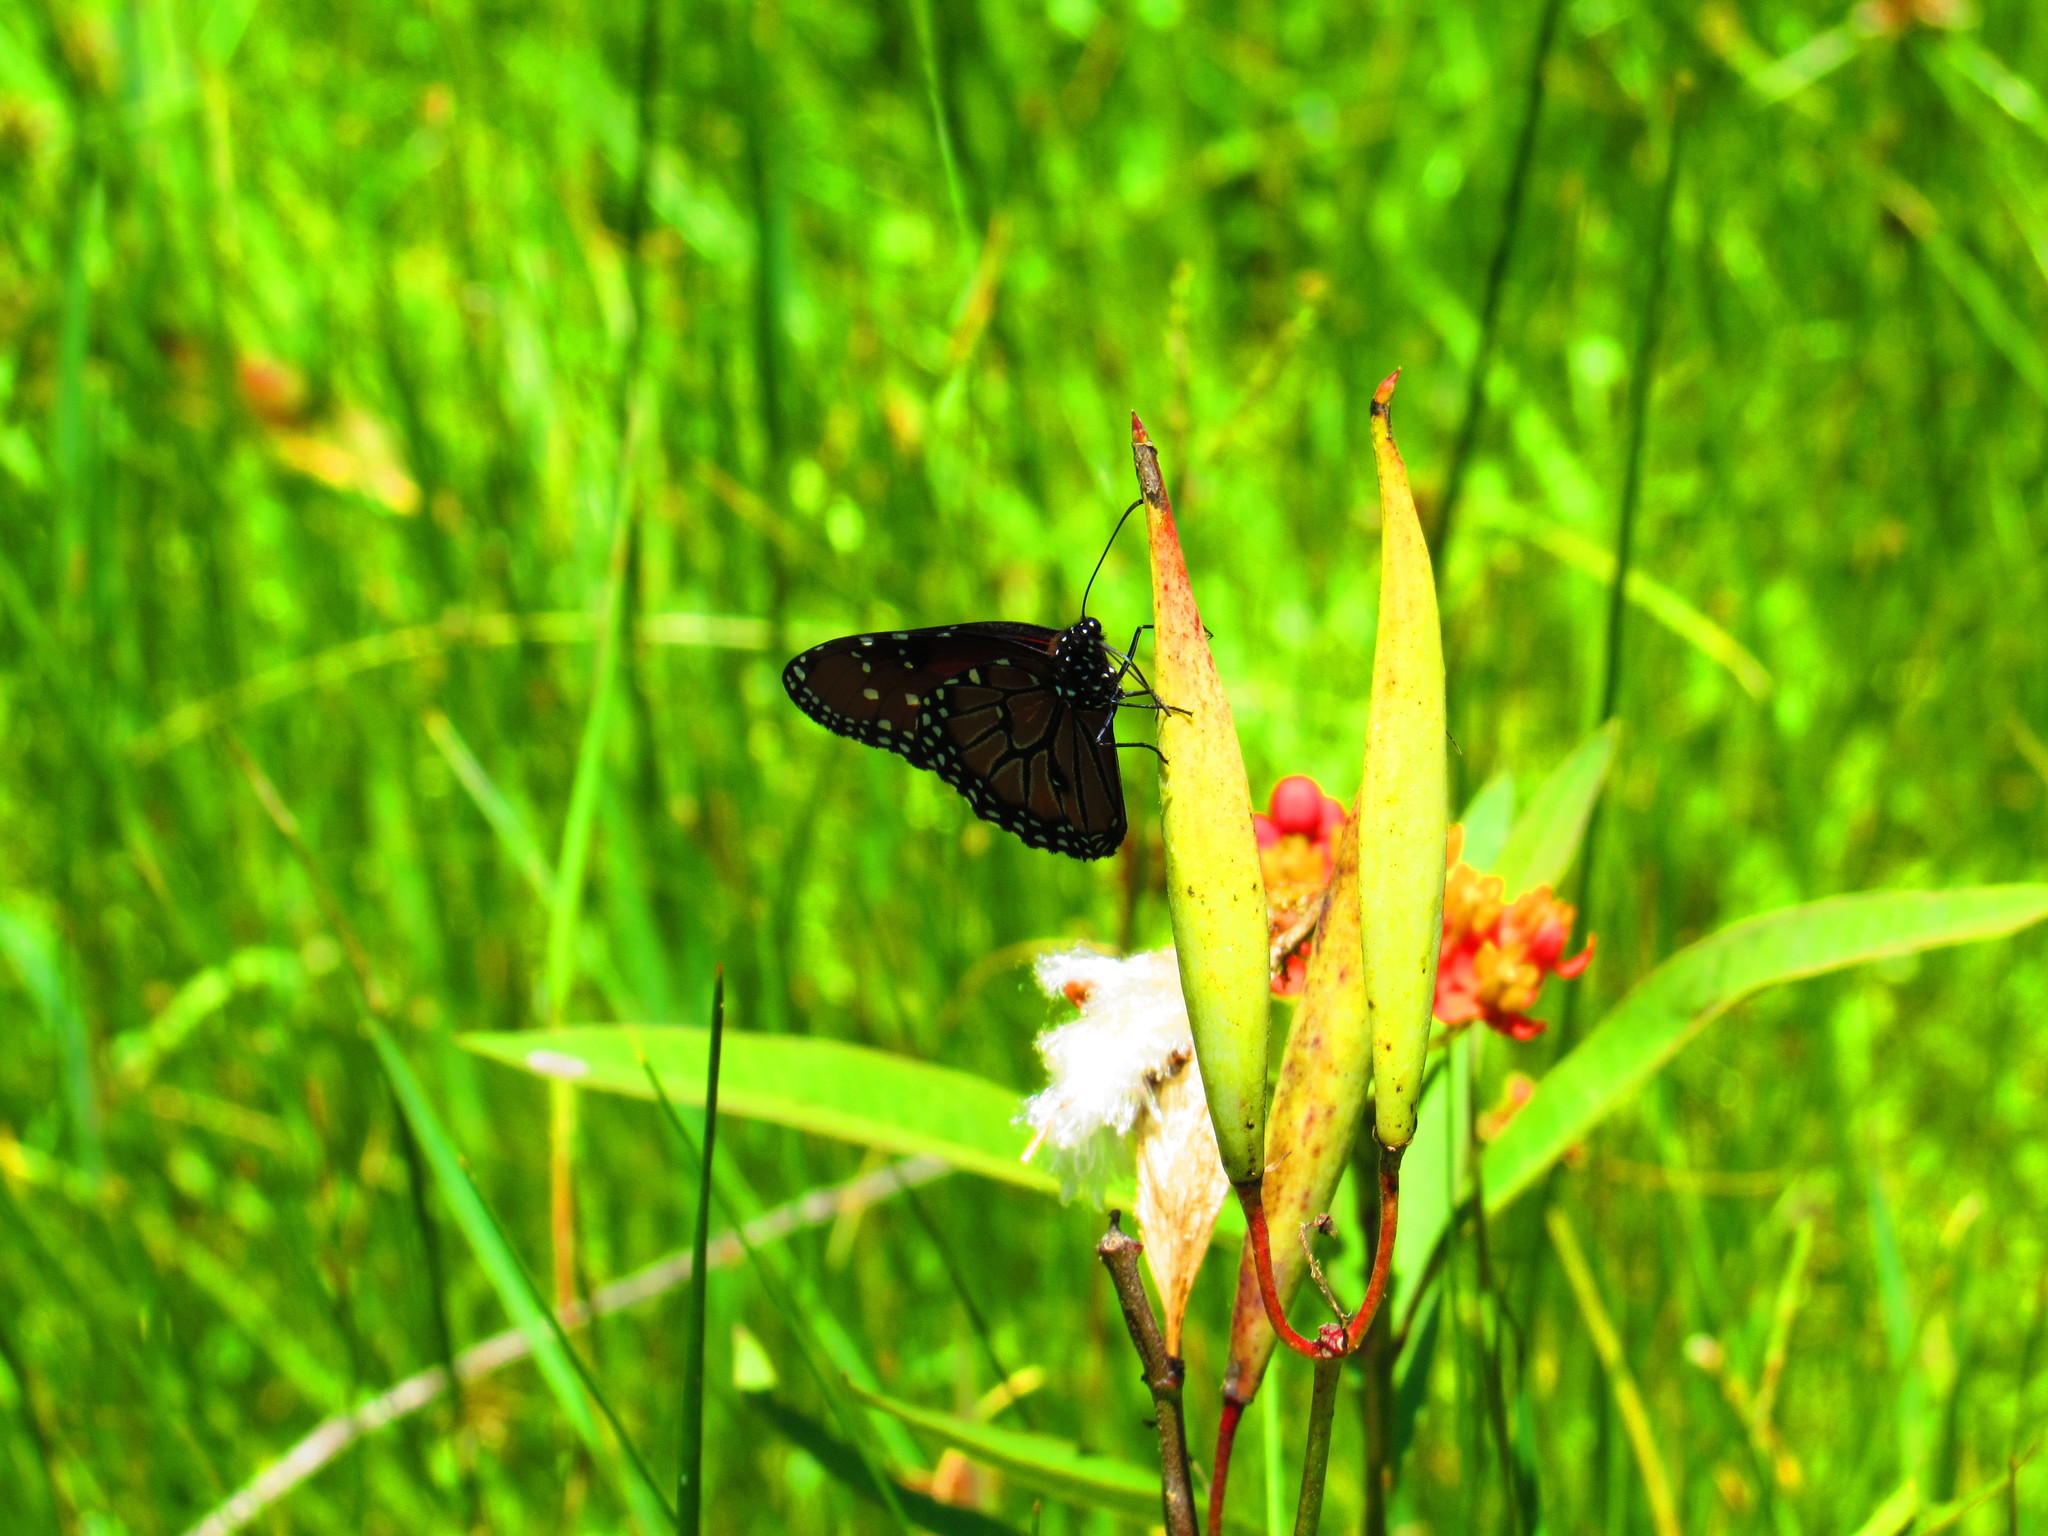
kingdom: Animalia
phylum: Arthropoda
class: Insecta
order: Lepidoptera
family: Nymphalidae
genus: Danaus
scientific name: Danaus gilippus
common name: Queen
